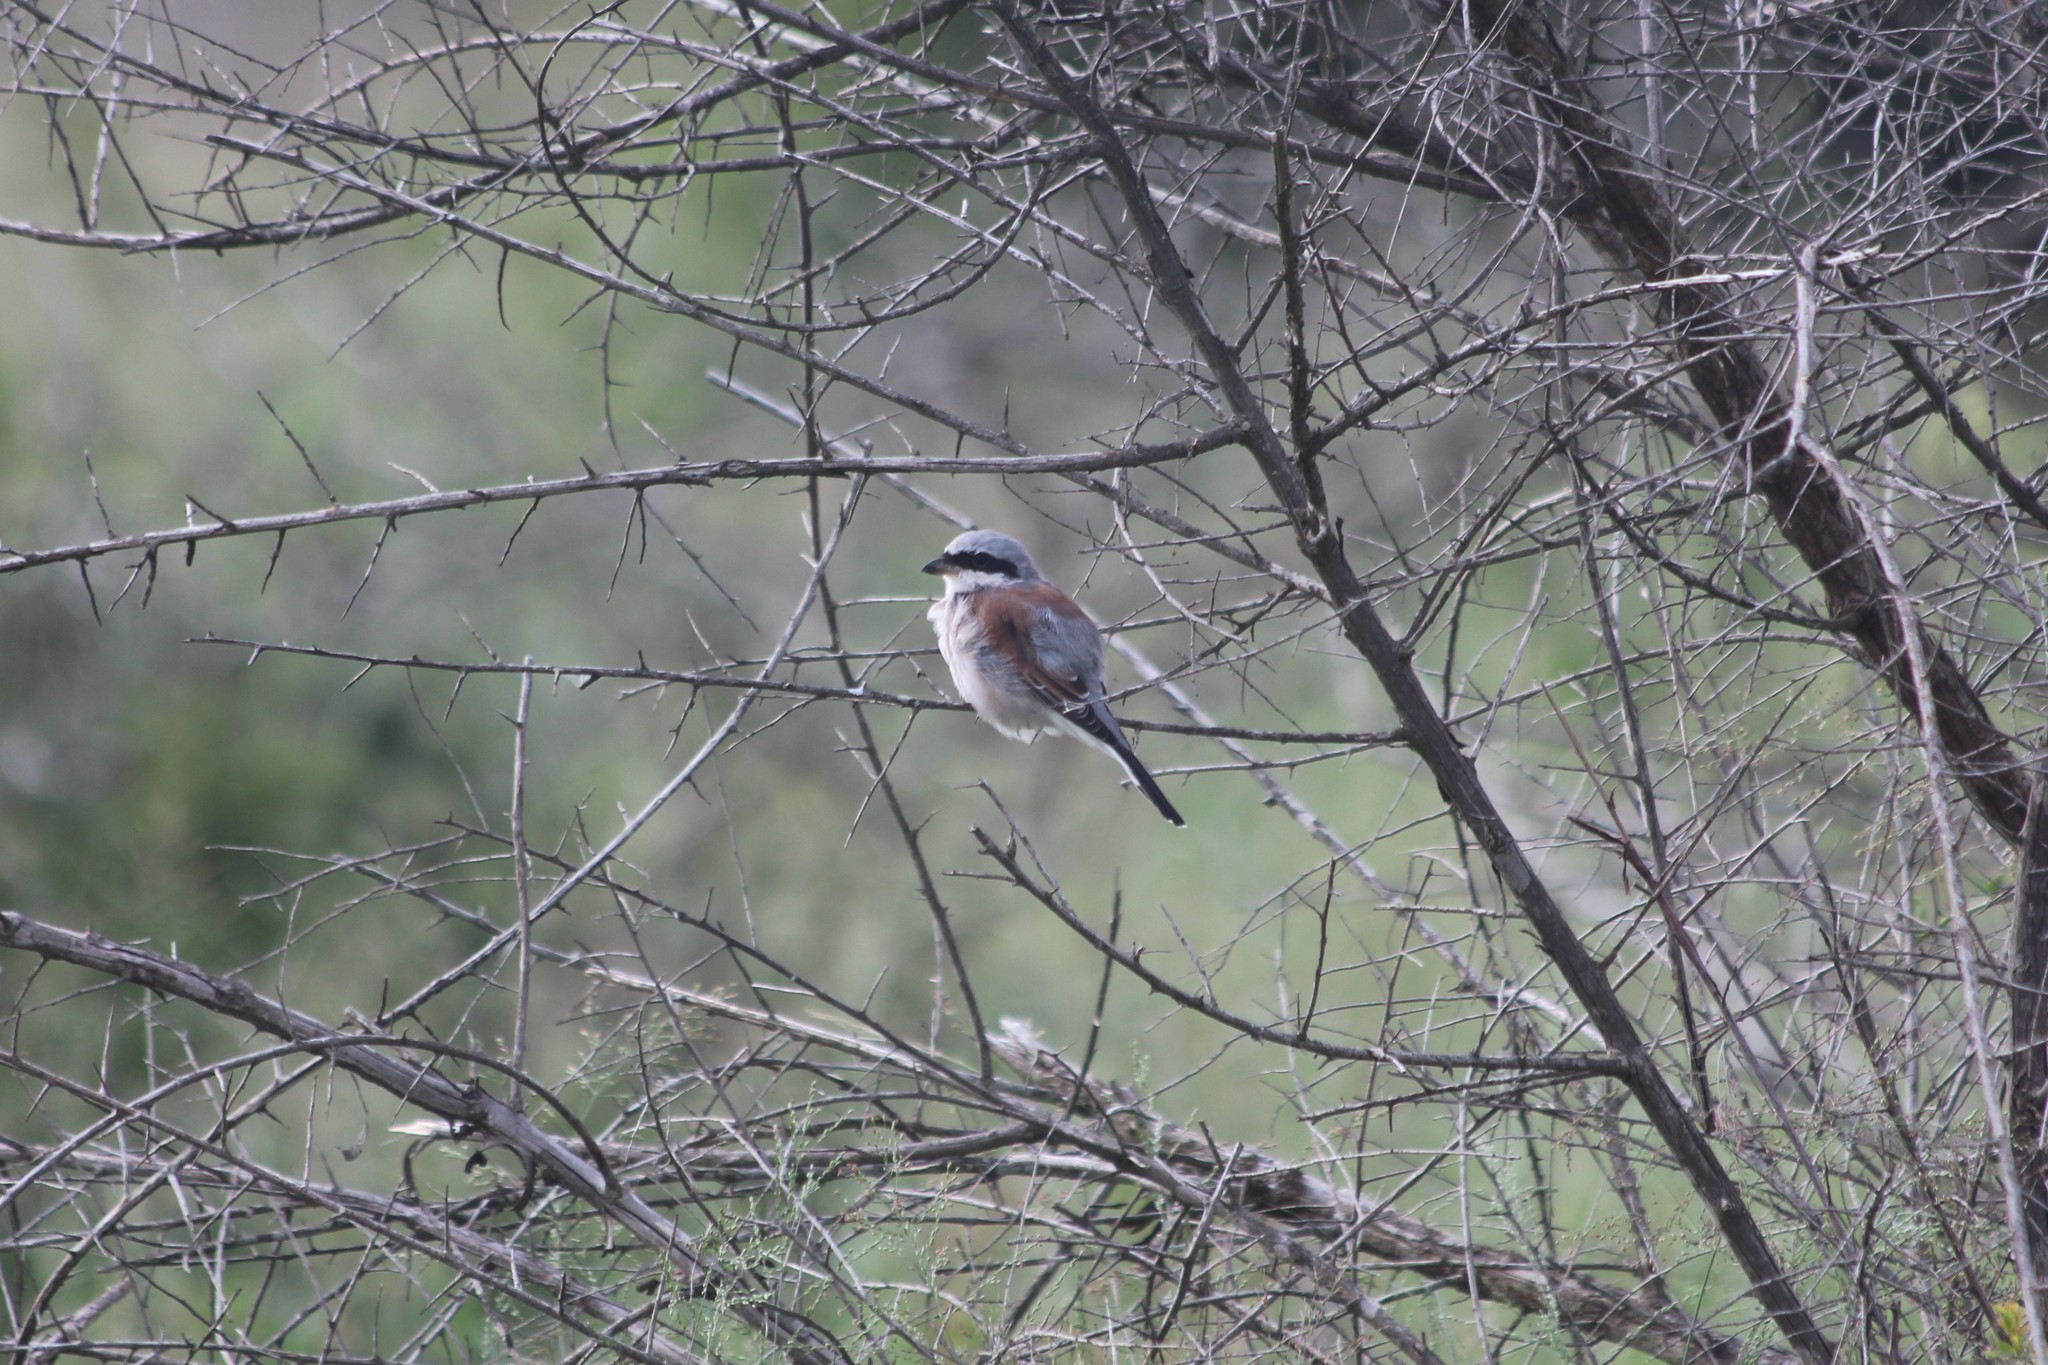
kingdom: Animalia
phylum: Chordata
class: Aves
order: Passeriformes
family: Laniidae
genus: Lanius
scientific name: Lanius collurio
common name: Red-backed shrike
